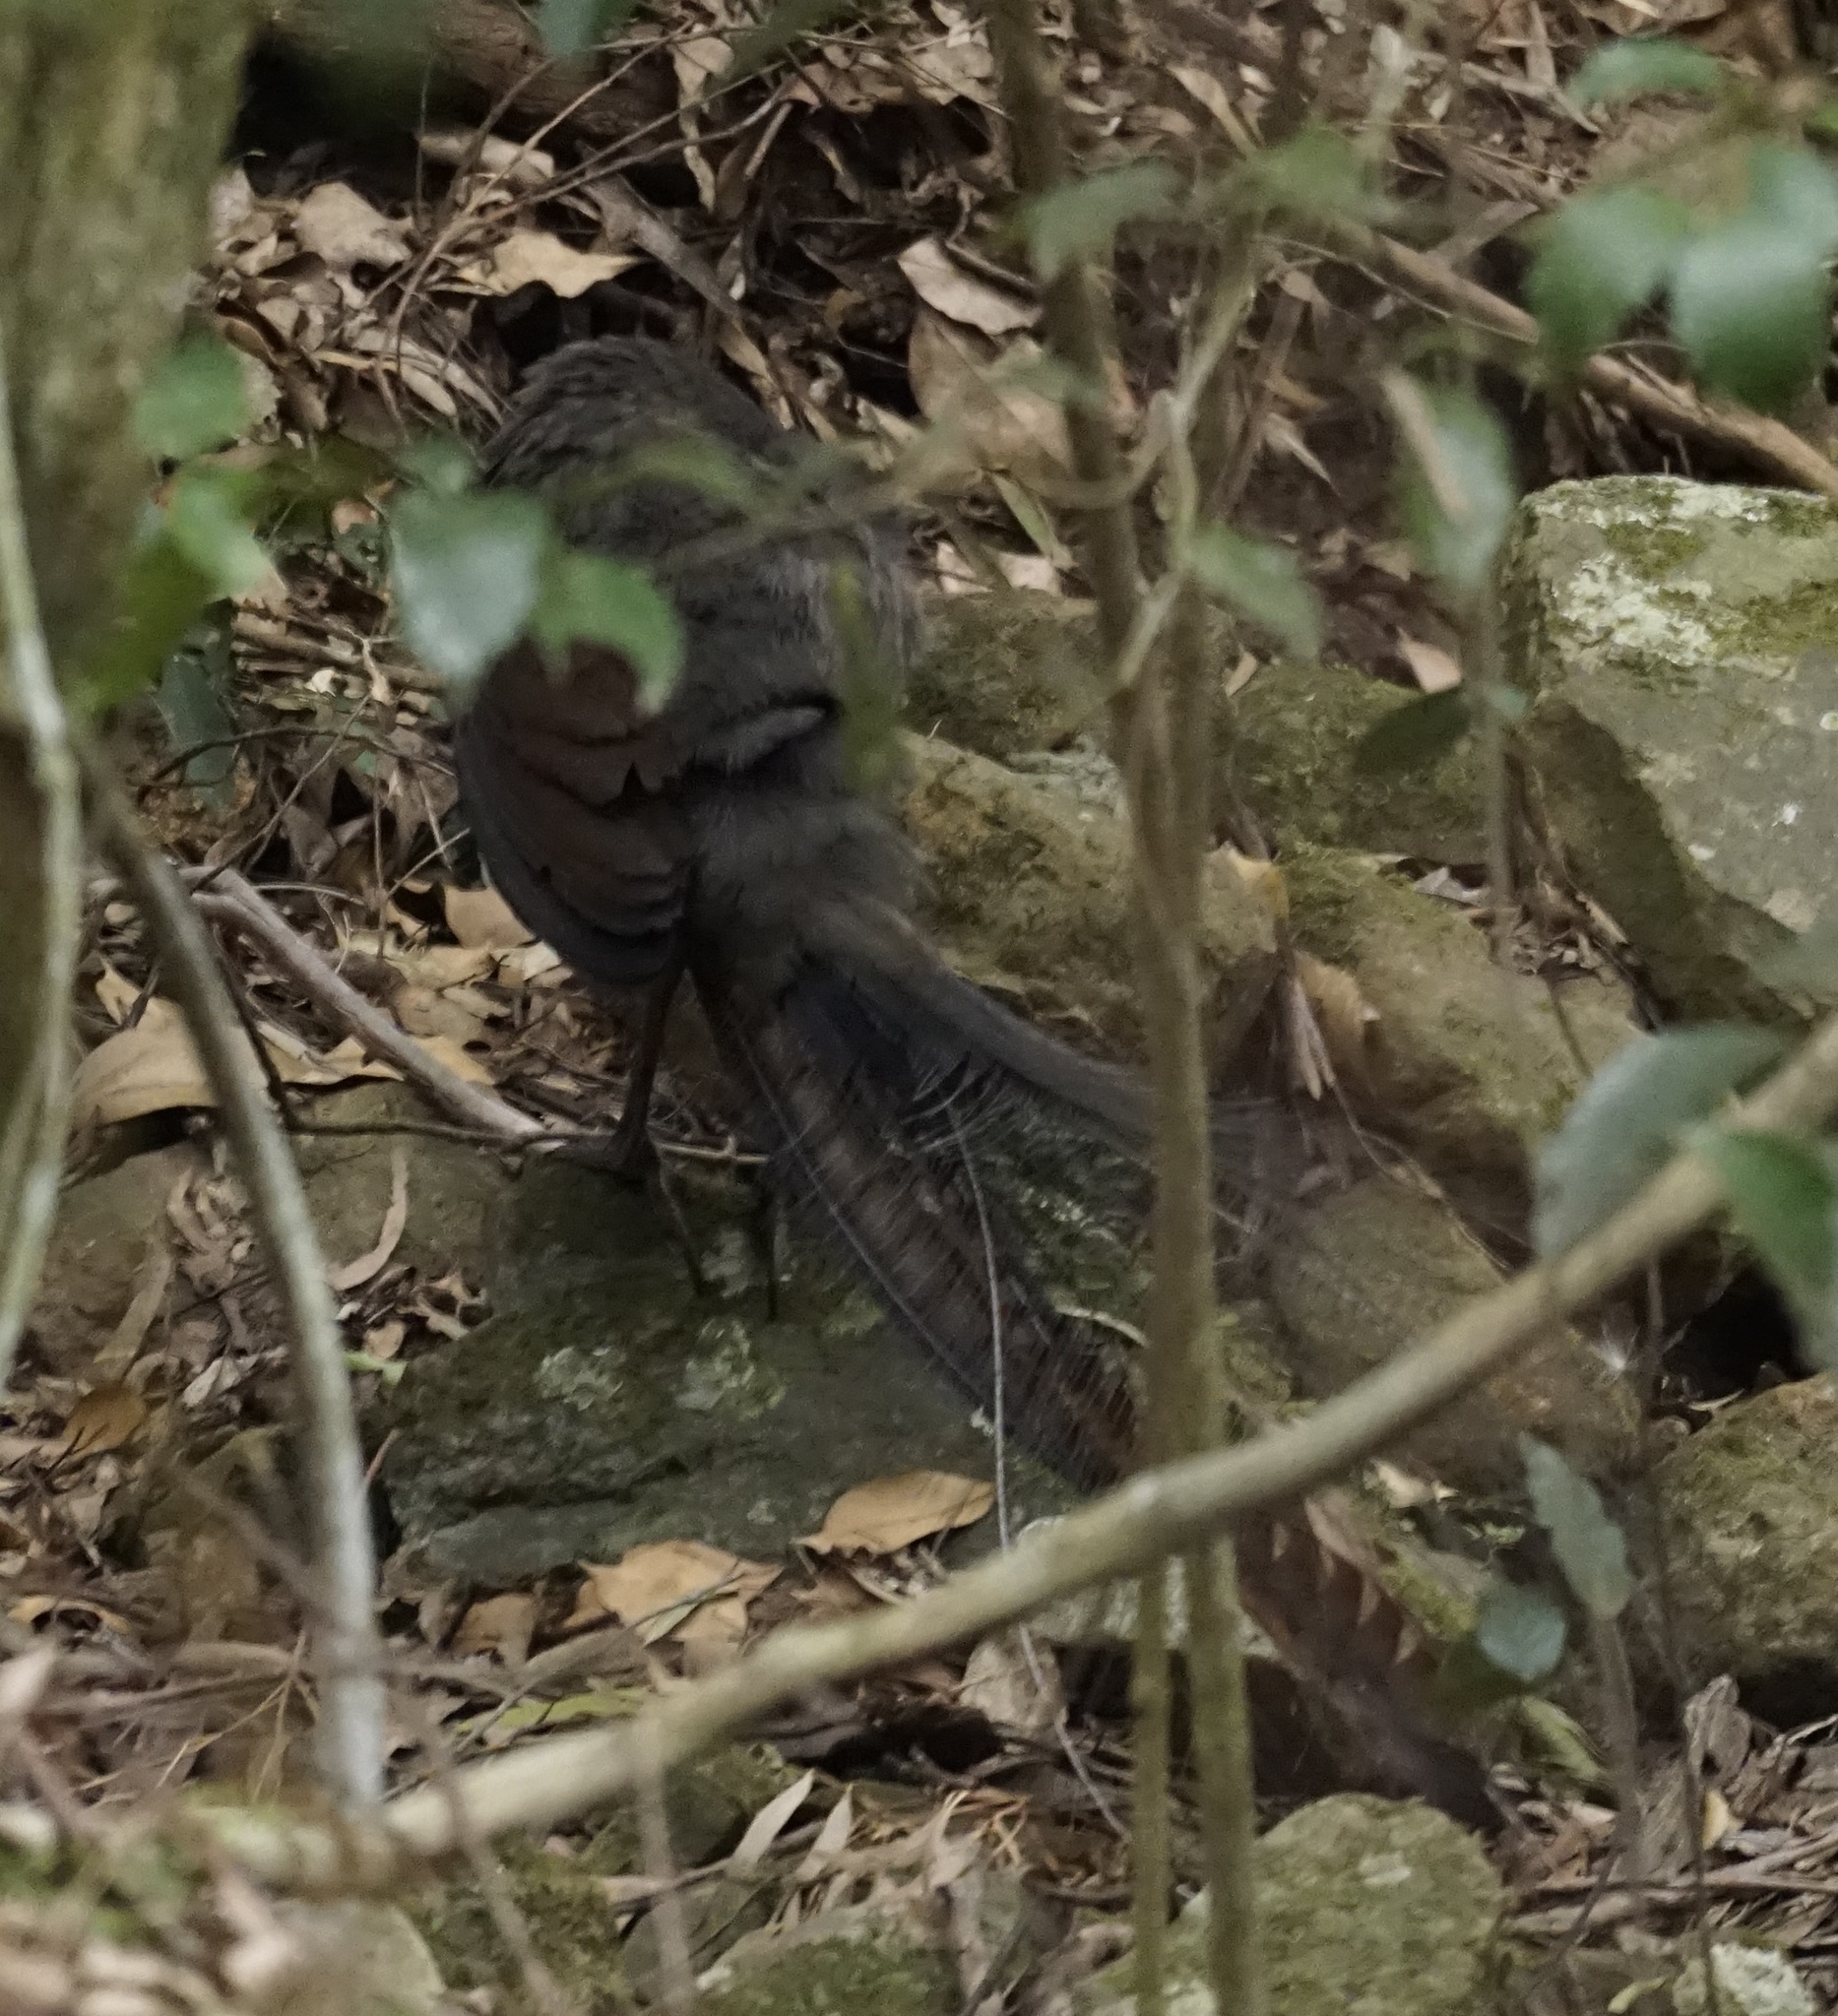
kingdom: Animalia
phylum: Chordata
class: Aves
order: Passeriformes
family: Menuridae
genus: Menura
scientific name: Menura novaehollandiae
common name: Superb lyrebird
